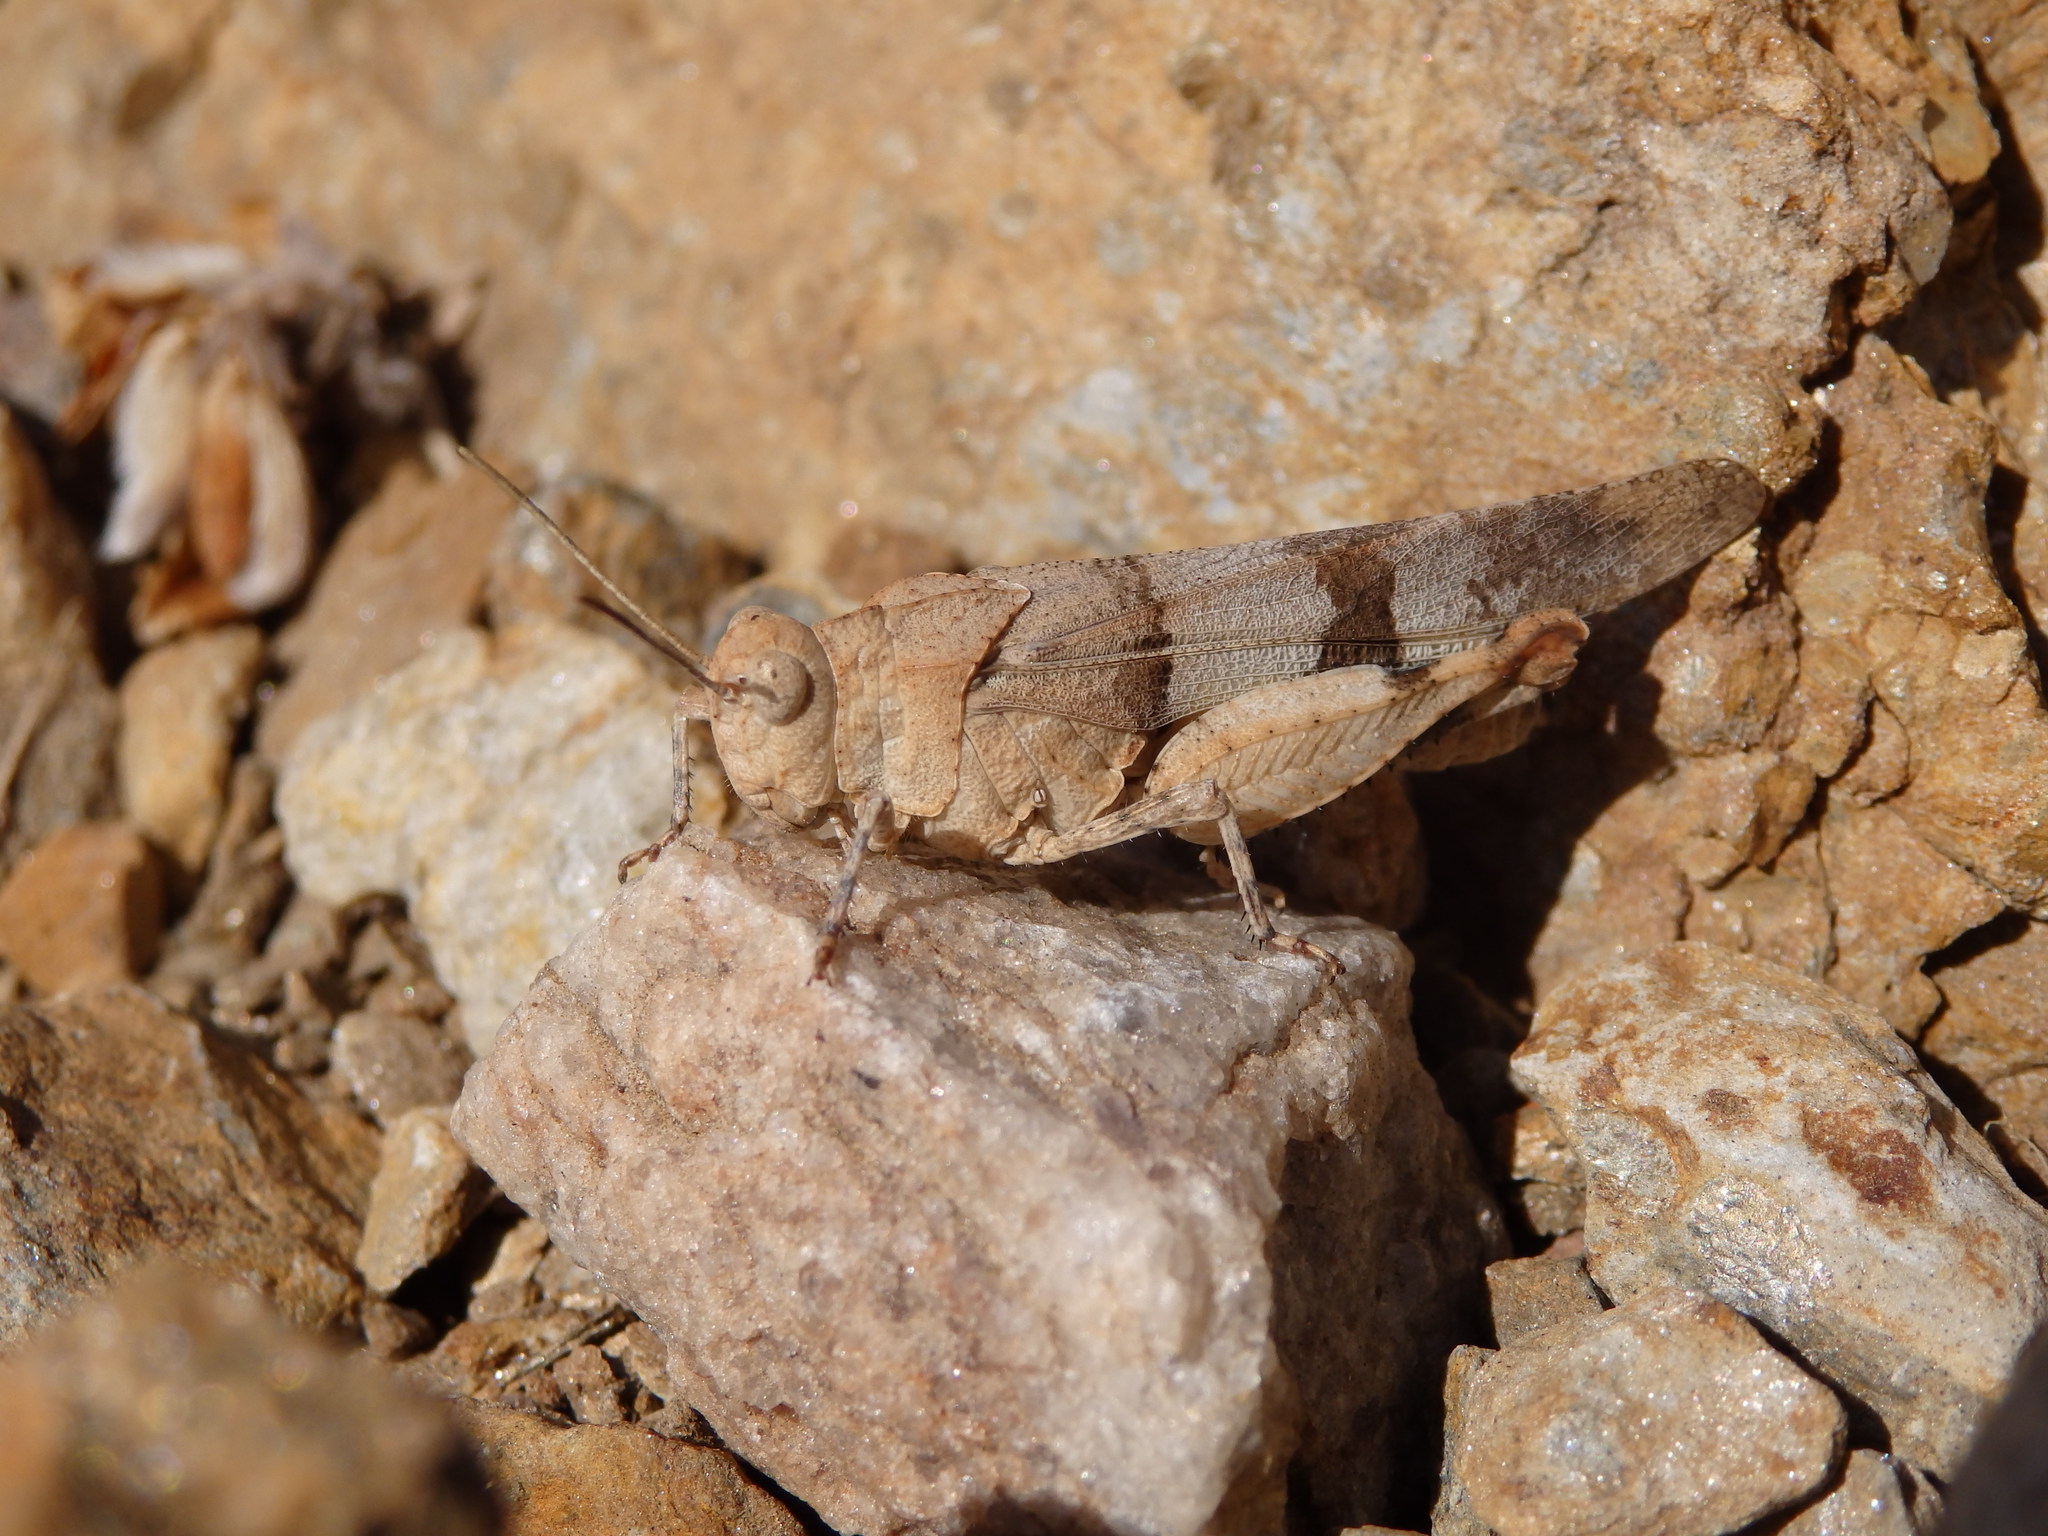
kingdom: Animalia
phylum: Arthropoda
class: Insecta
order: Orthoptera
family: Acrididae
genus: Oedipoda
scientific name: Oedipoda caerulescens
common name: Blue-winged grasshopper
